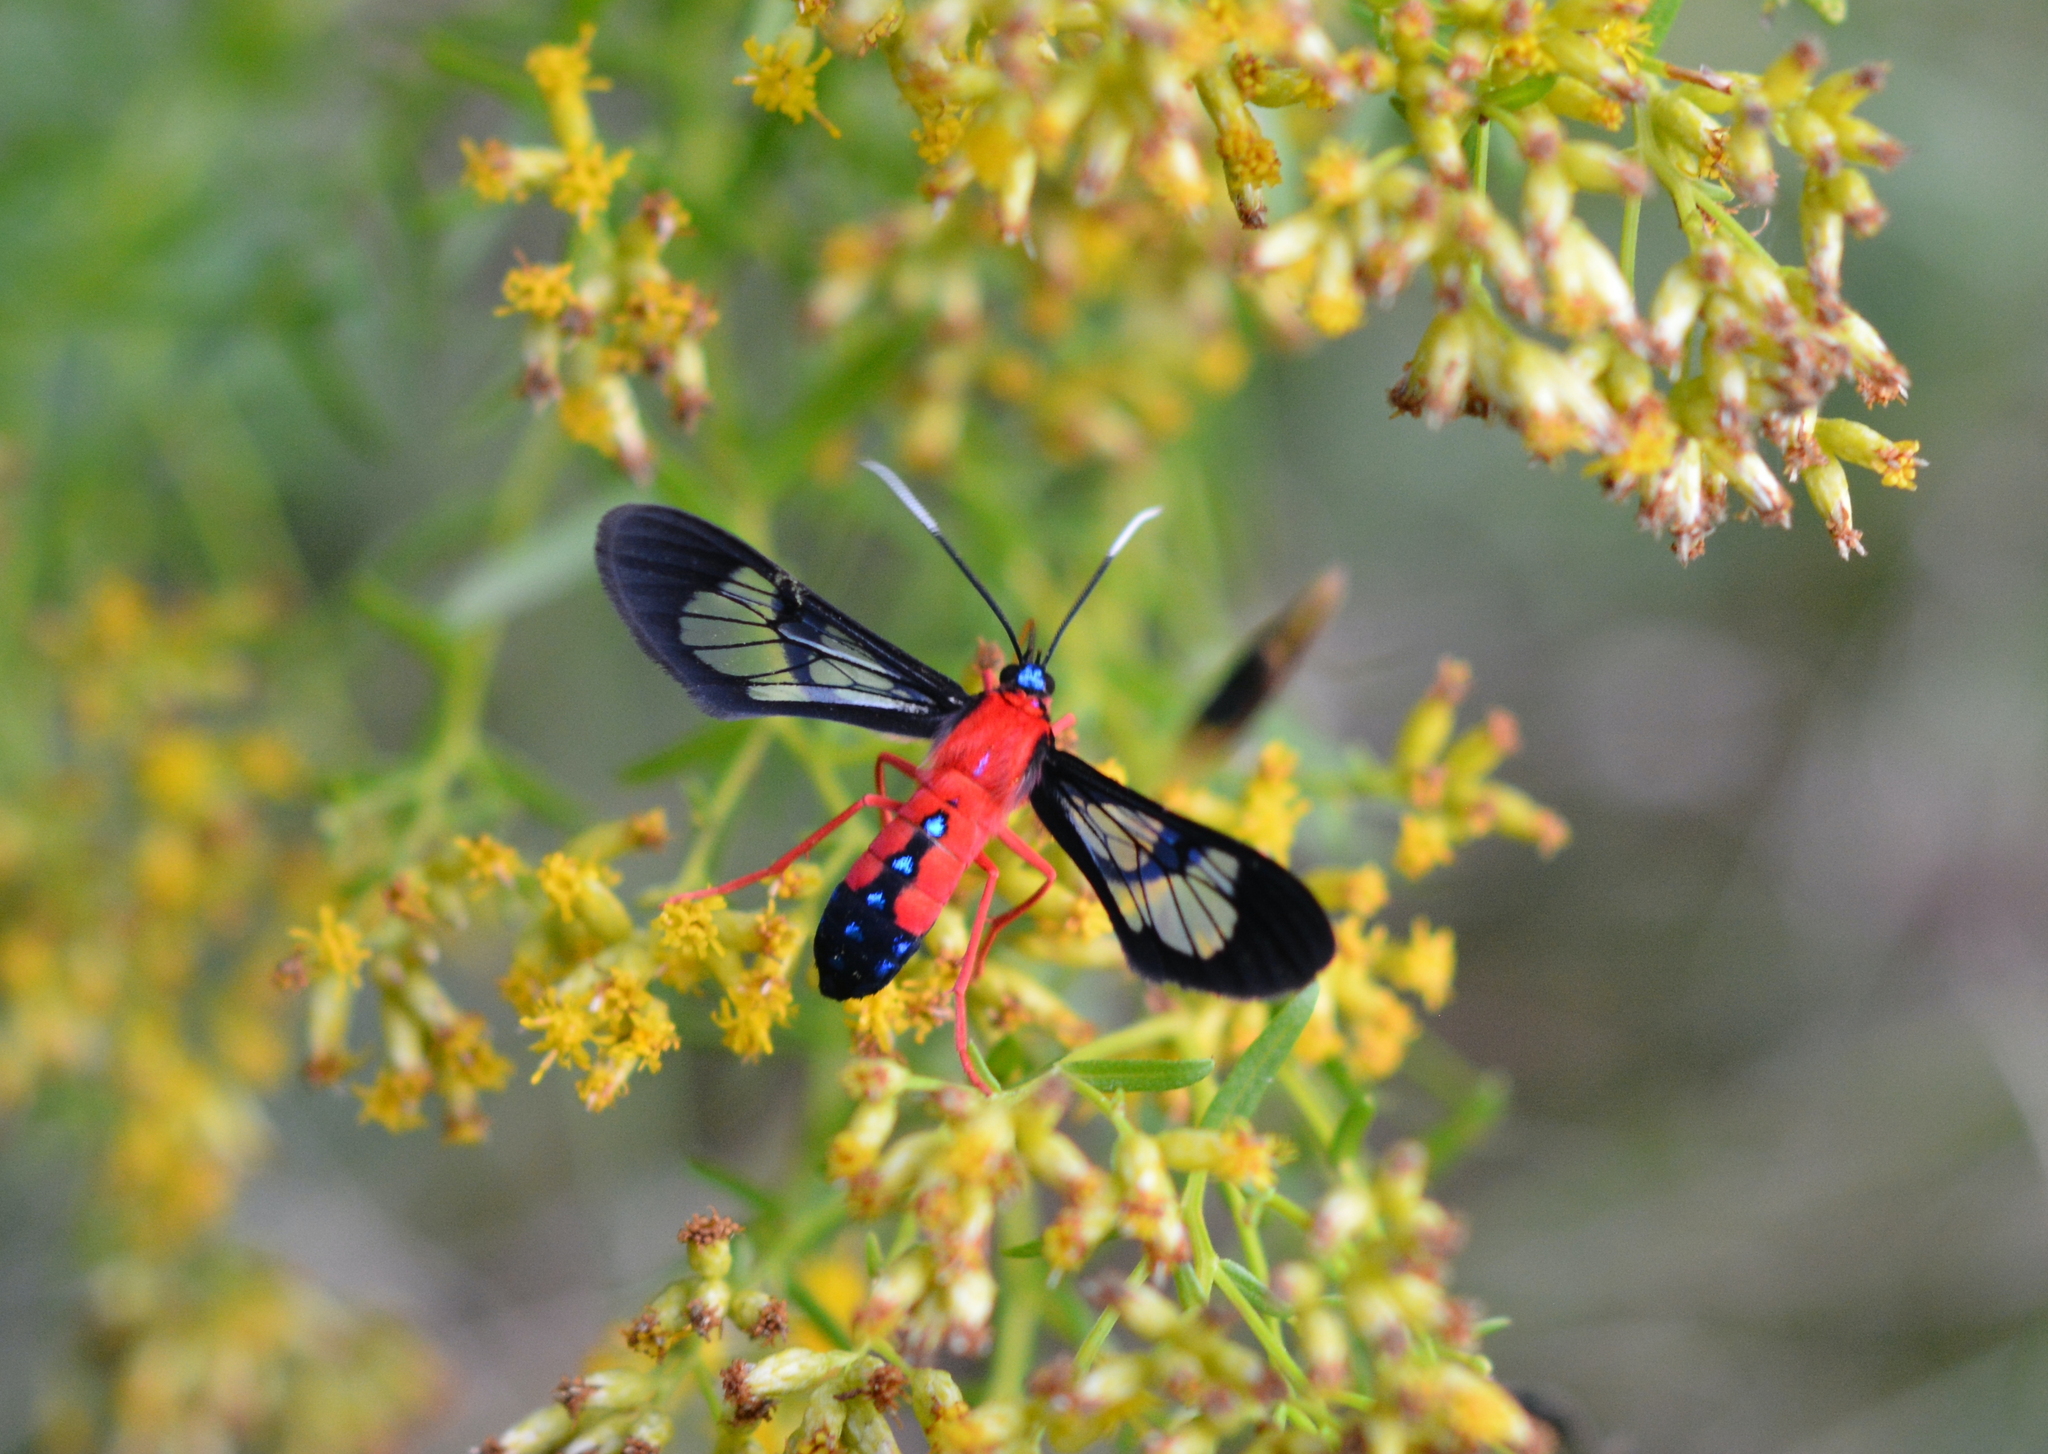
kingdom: Animalia
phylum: Arthropoda
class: Insecta
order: Lepidoptera
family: Erebidae
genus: Cosmosoma
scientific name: Cosmosoma myrodora
